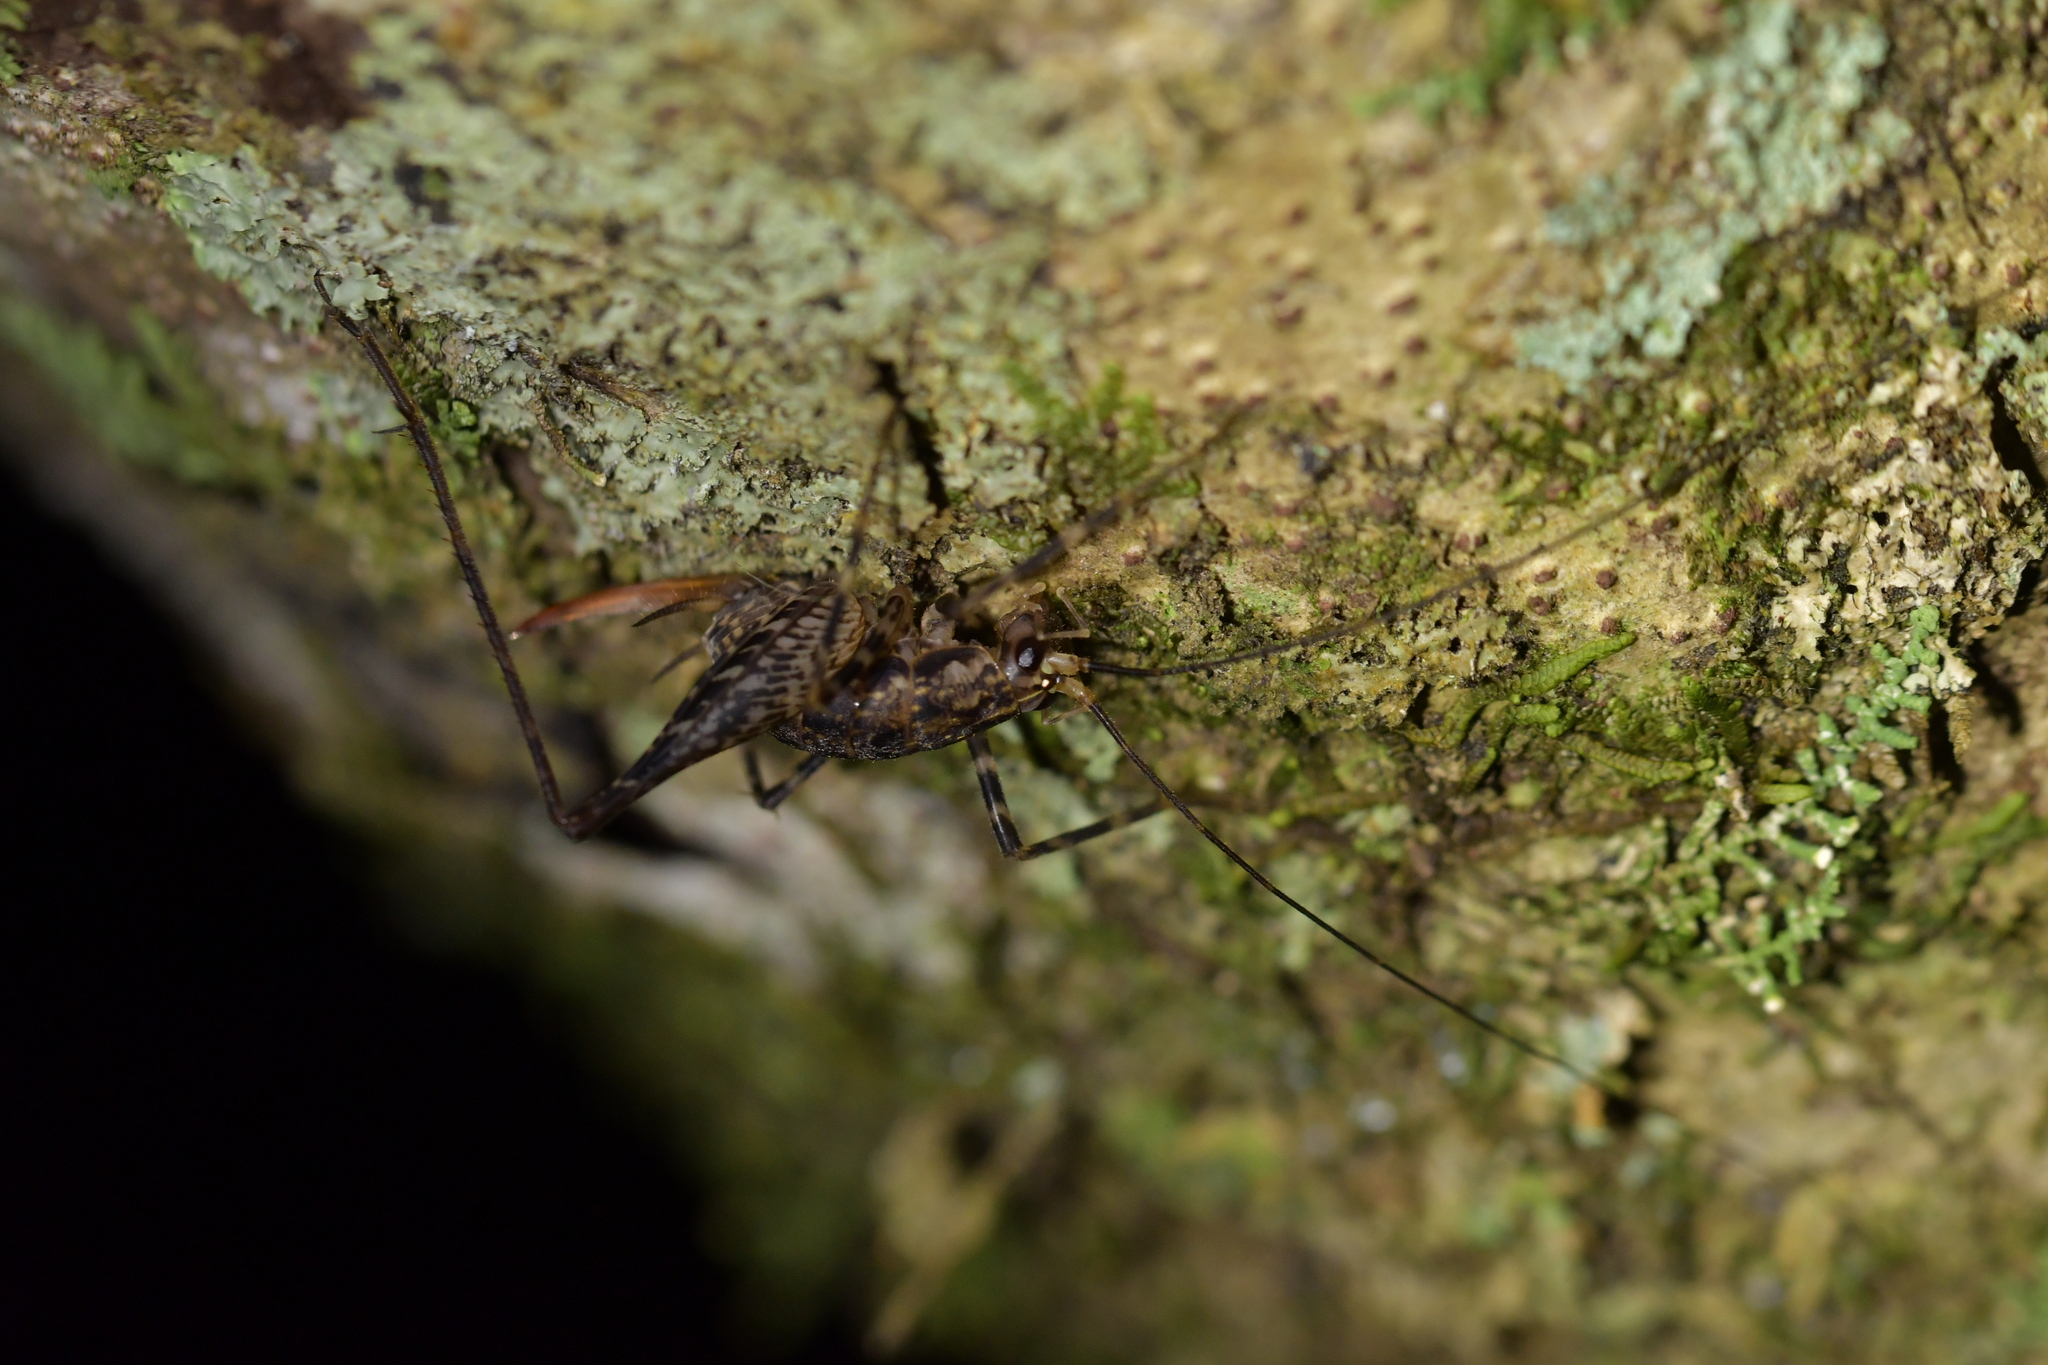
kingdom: Animalia
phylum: Arthropoda
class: Insecta
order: Orthoptera
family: Rhaphidophoridae
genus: Pleioplectron
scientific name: Pleioplectron hudsoni
